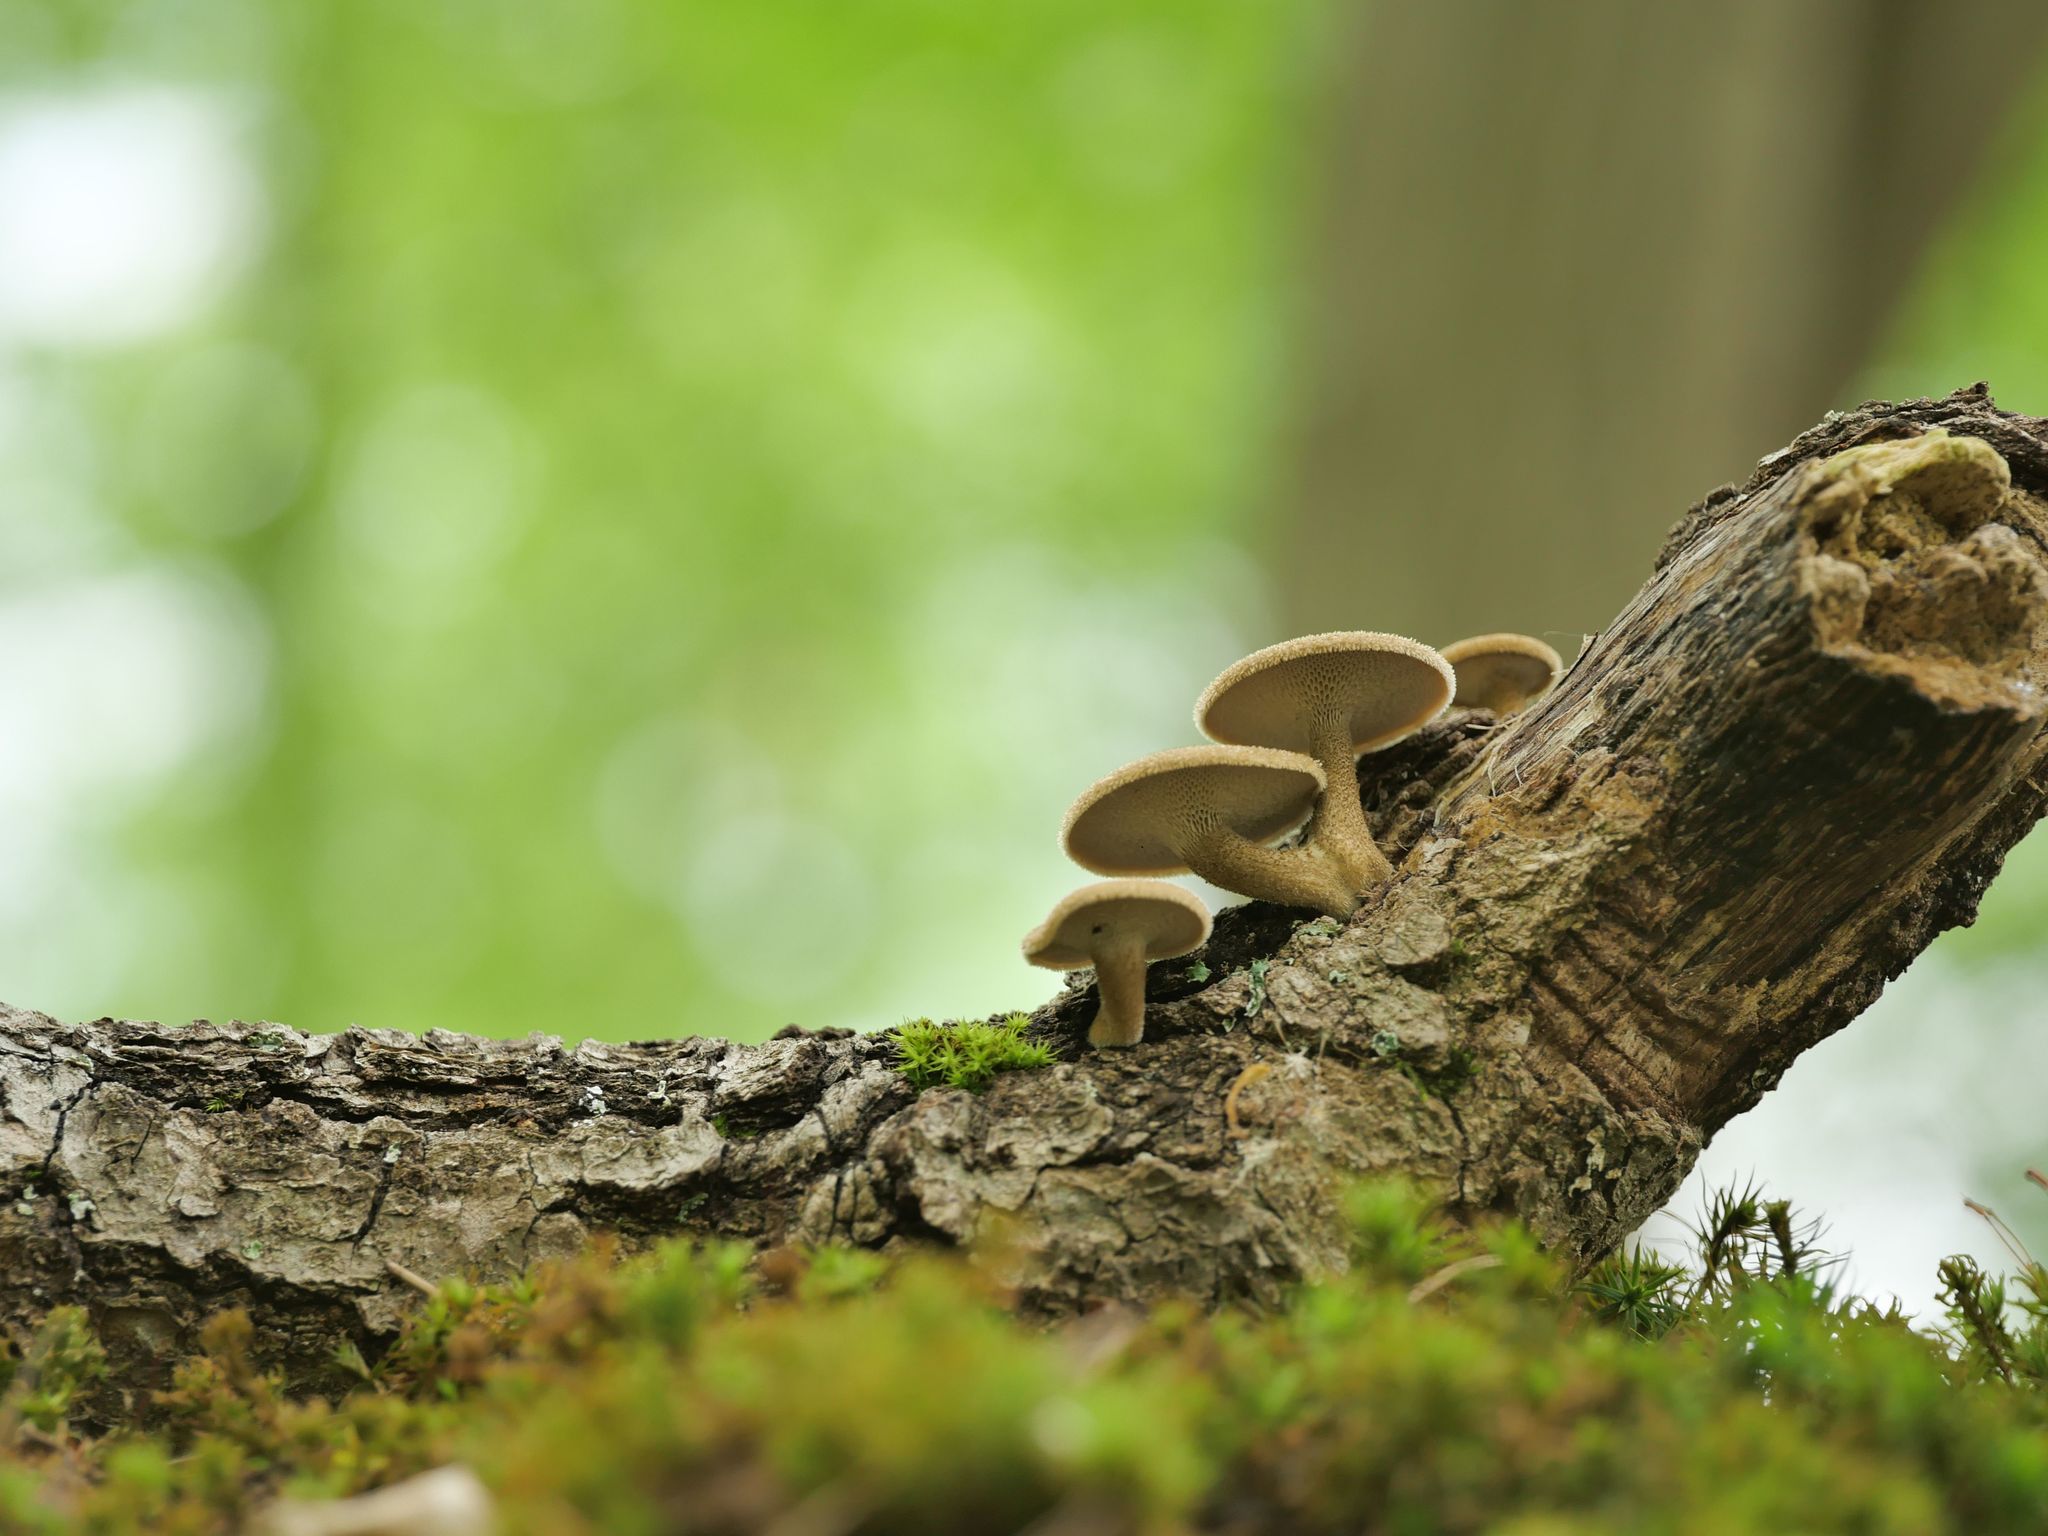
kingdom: Fungi
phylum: Basidiomycota
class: Agaricomycetes
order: Polyporales
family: Polyporaceae
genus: Lentinus
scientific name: Lentinus arcularius
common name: Spring polypore
